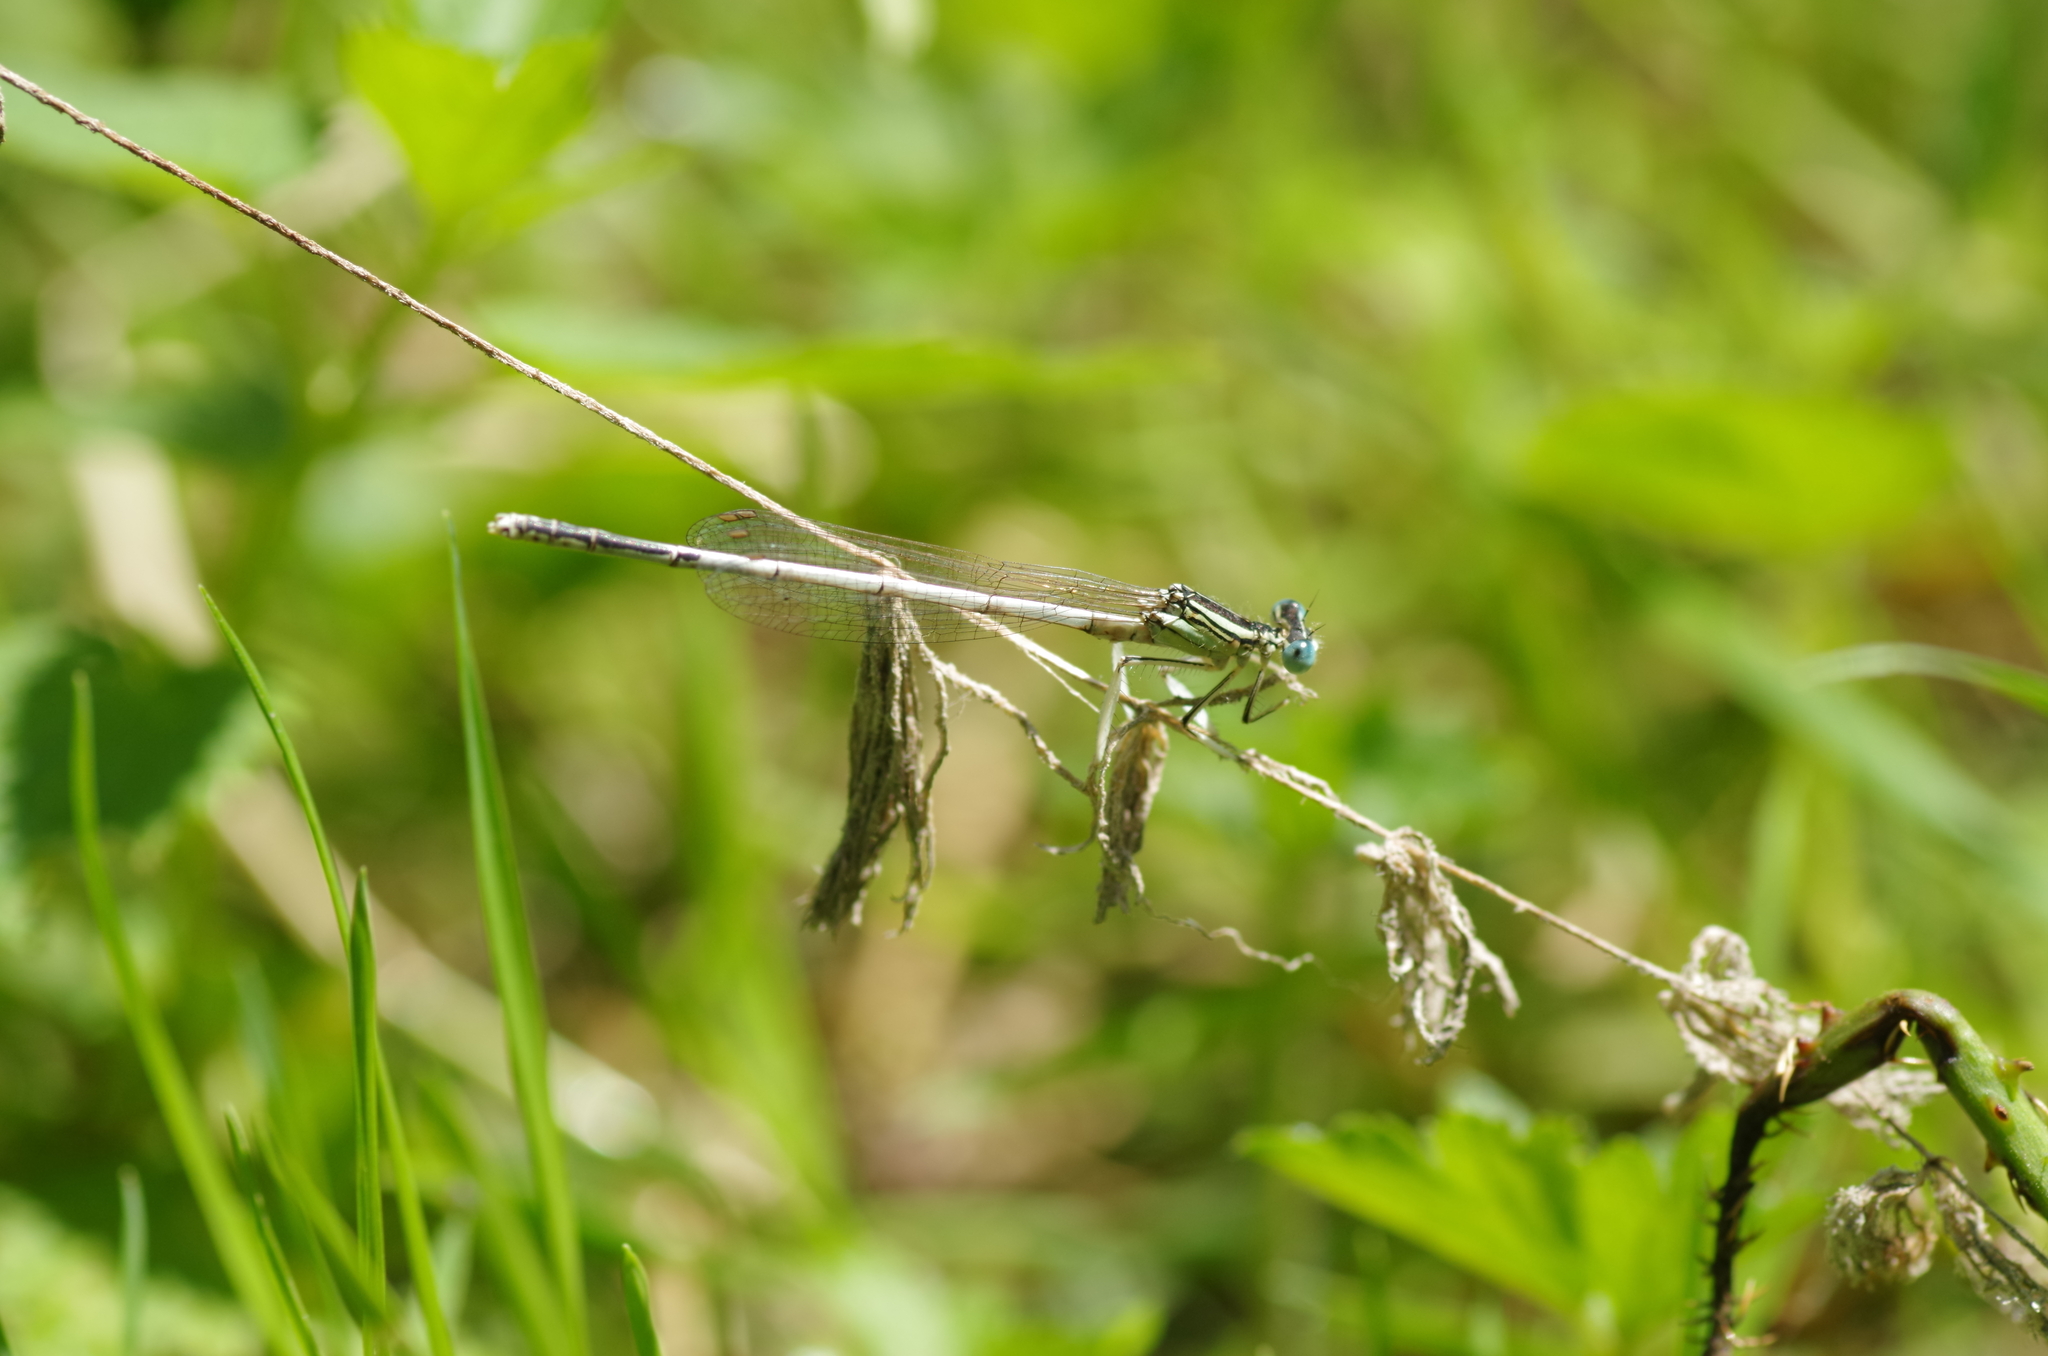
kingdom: Animalia
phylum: Arthropoda
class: Insecta
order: Odonata
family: Platycnemididae
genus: Platycnemis
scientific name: Platycnemis latipes
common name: White featherleg
